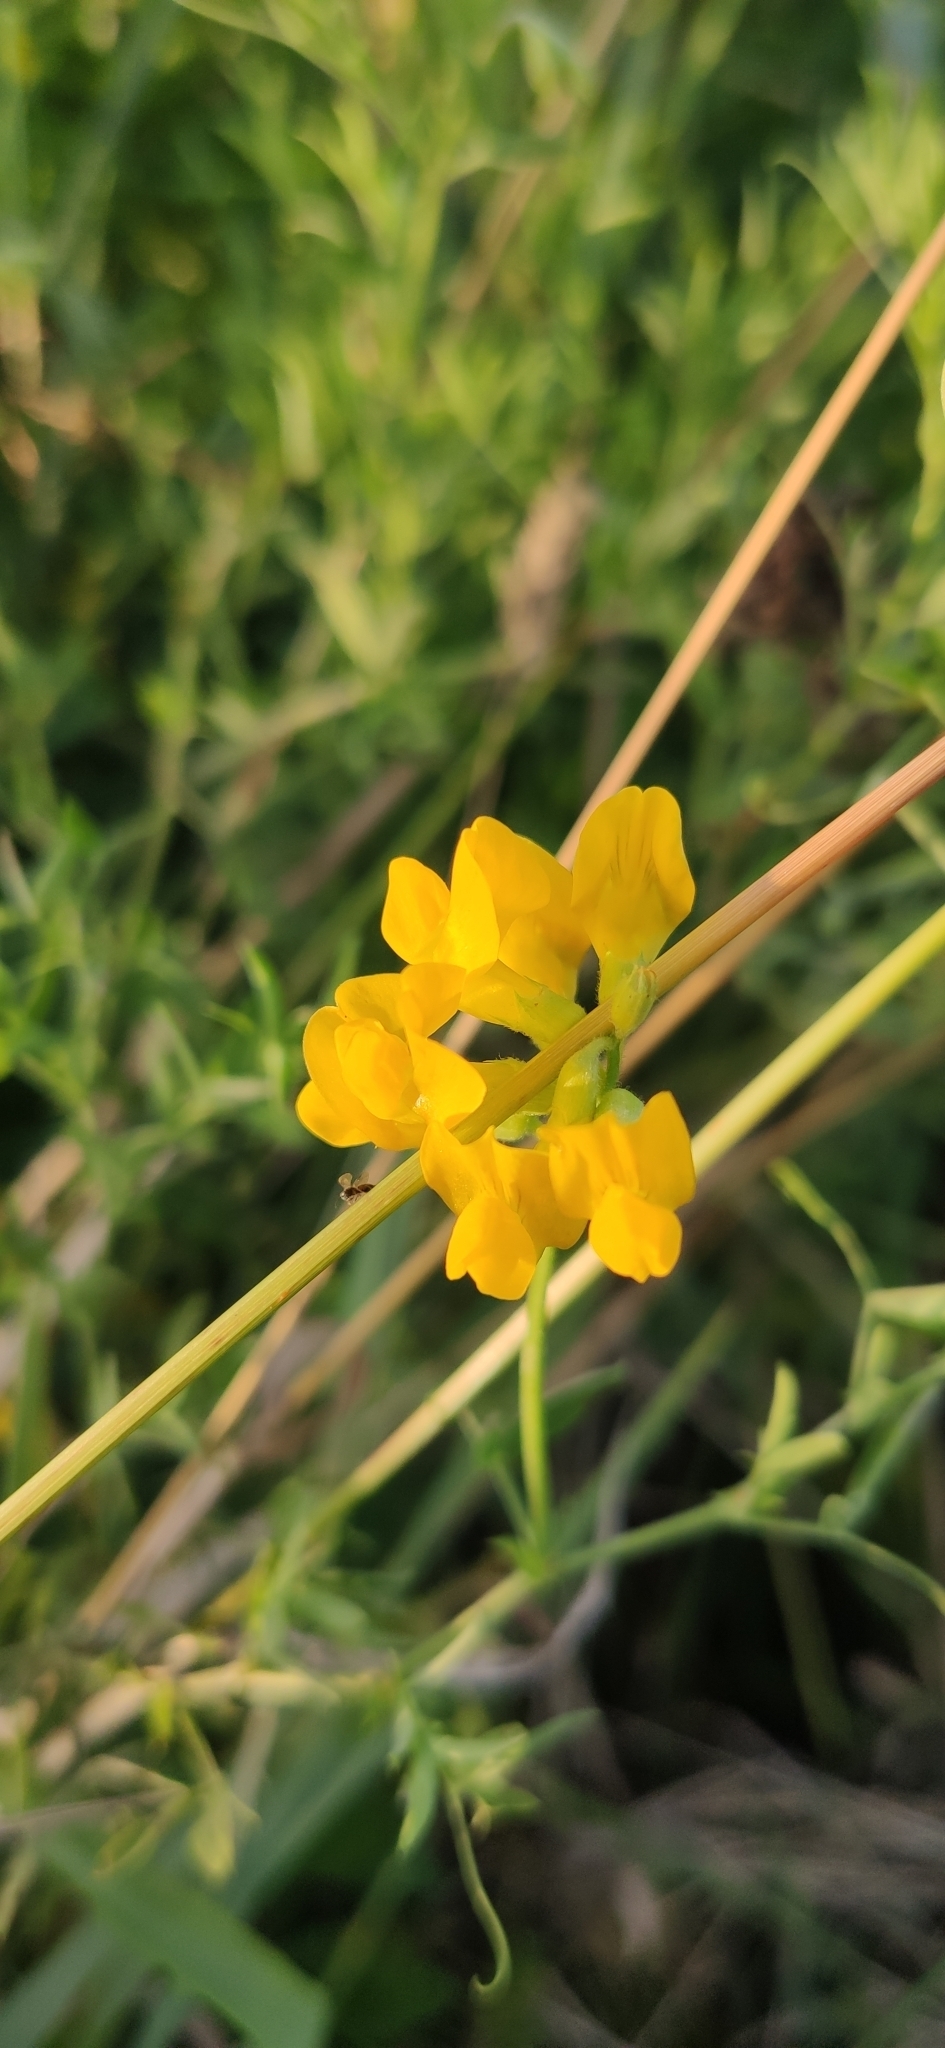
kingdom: Plantae
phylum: Tracheophyta
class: Magnoliopsida
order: Fabales
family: Fabaceae
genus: Lathyrus
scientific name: Lathyrus pratensis
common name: Meadow vetchling
